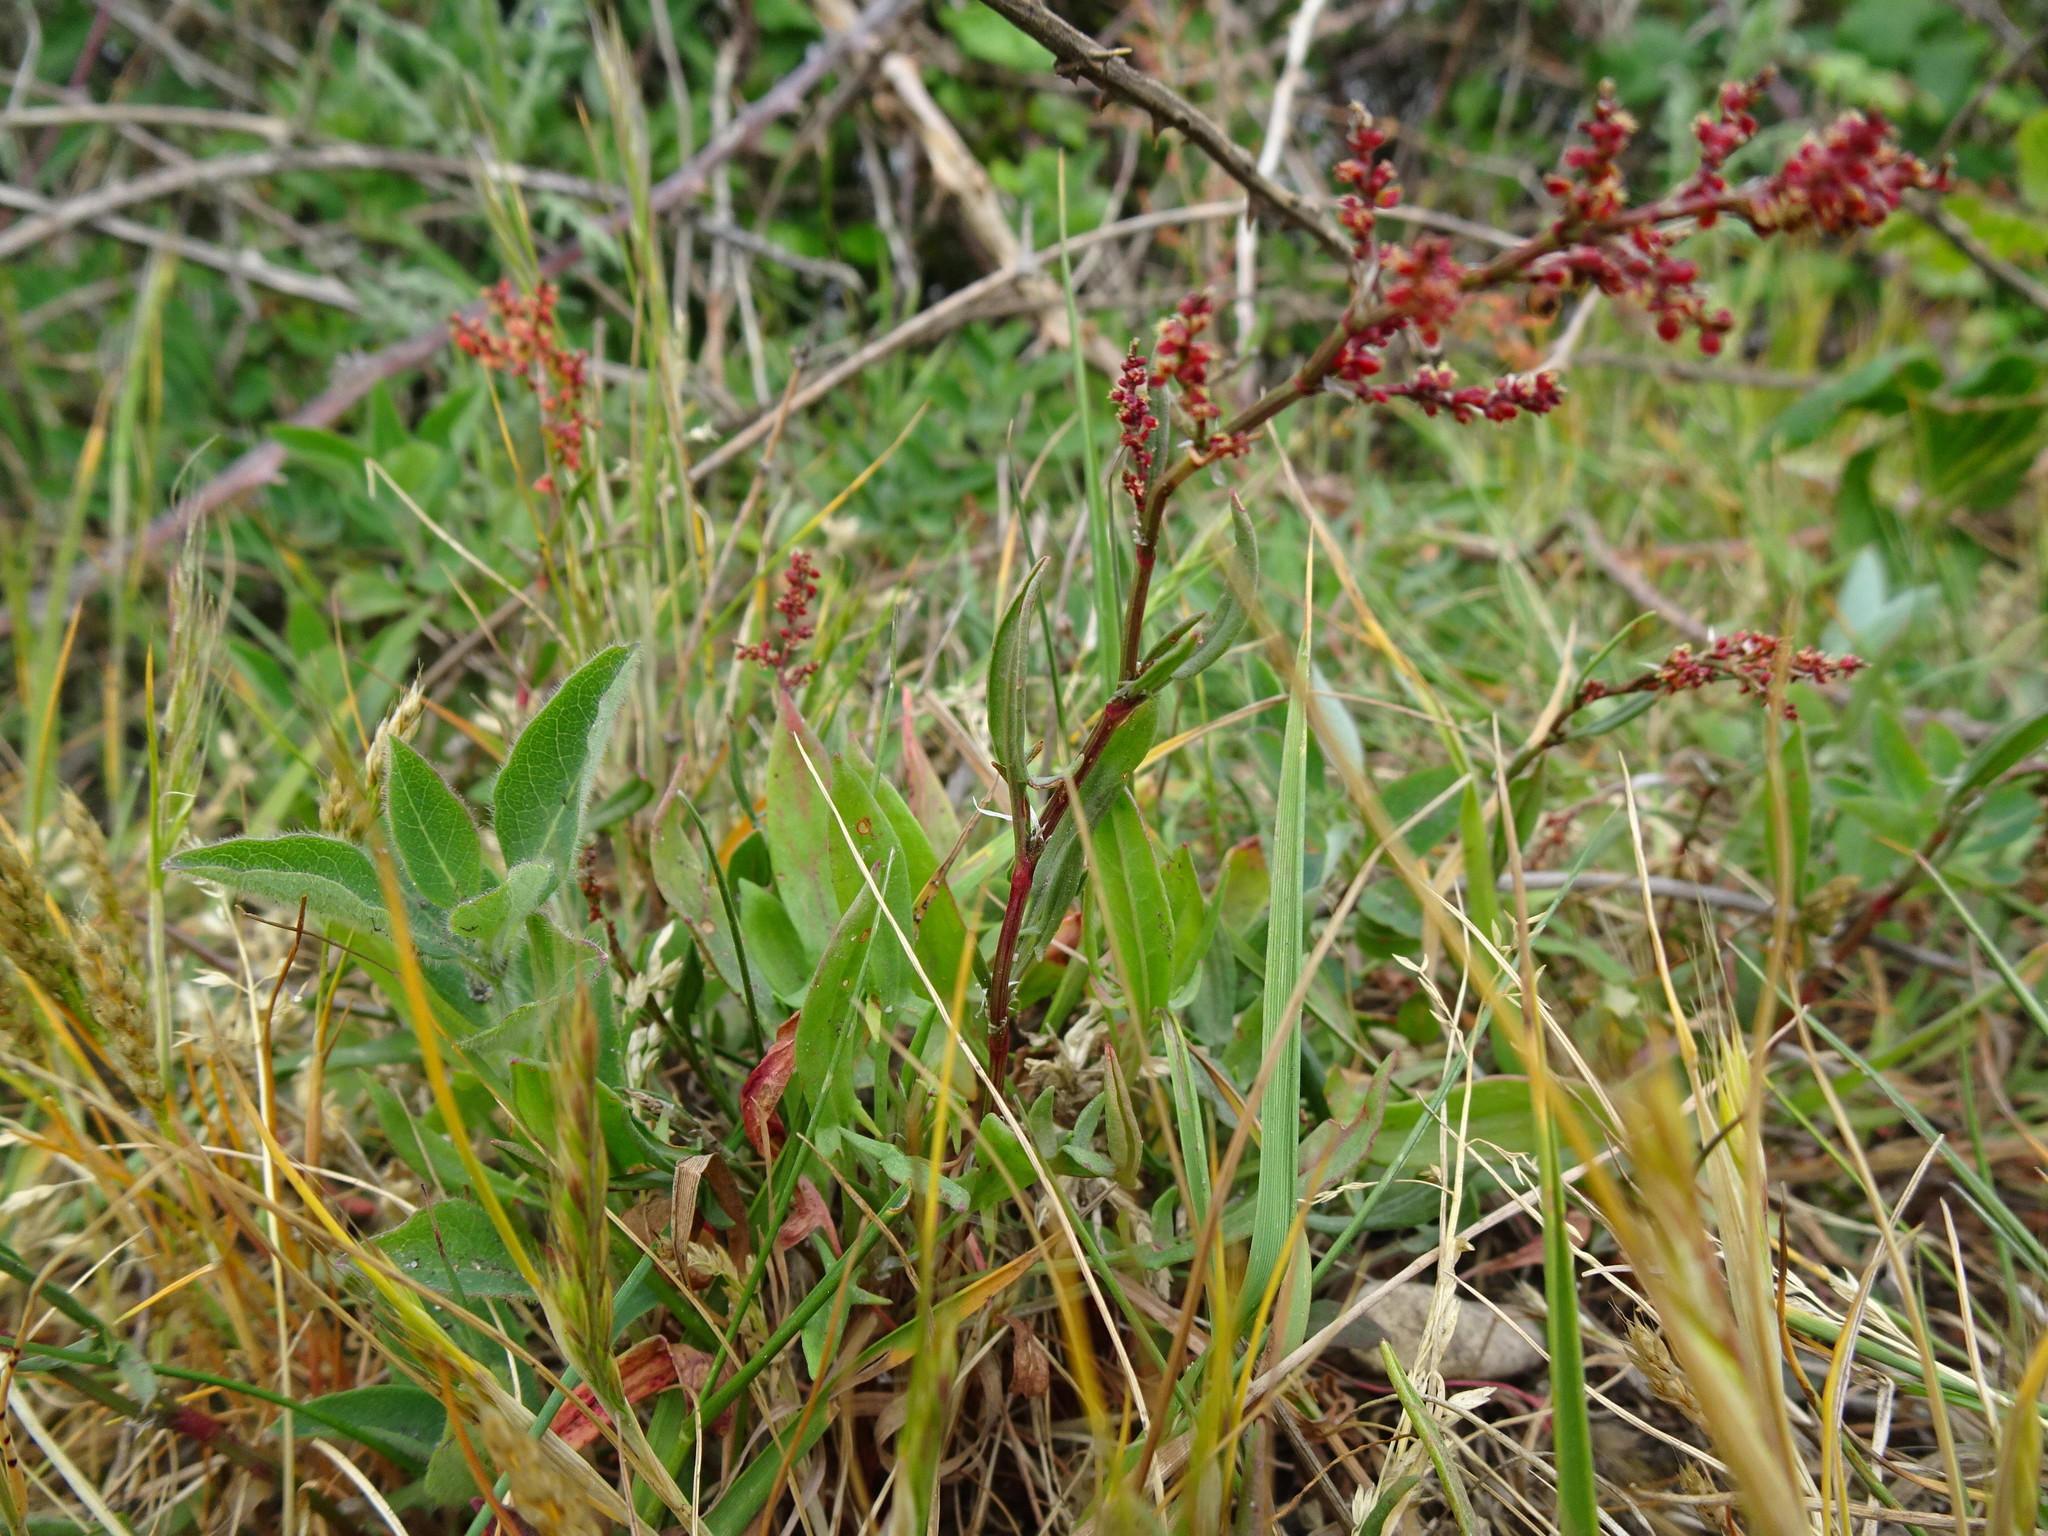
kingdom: Plantae
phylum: Tracheophyta
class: Magnoliopsida
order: Caryophyllales
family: Polygonaceae
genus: Rumex
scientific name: Rumex acetosella
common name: Common sheep sorrel
